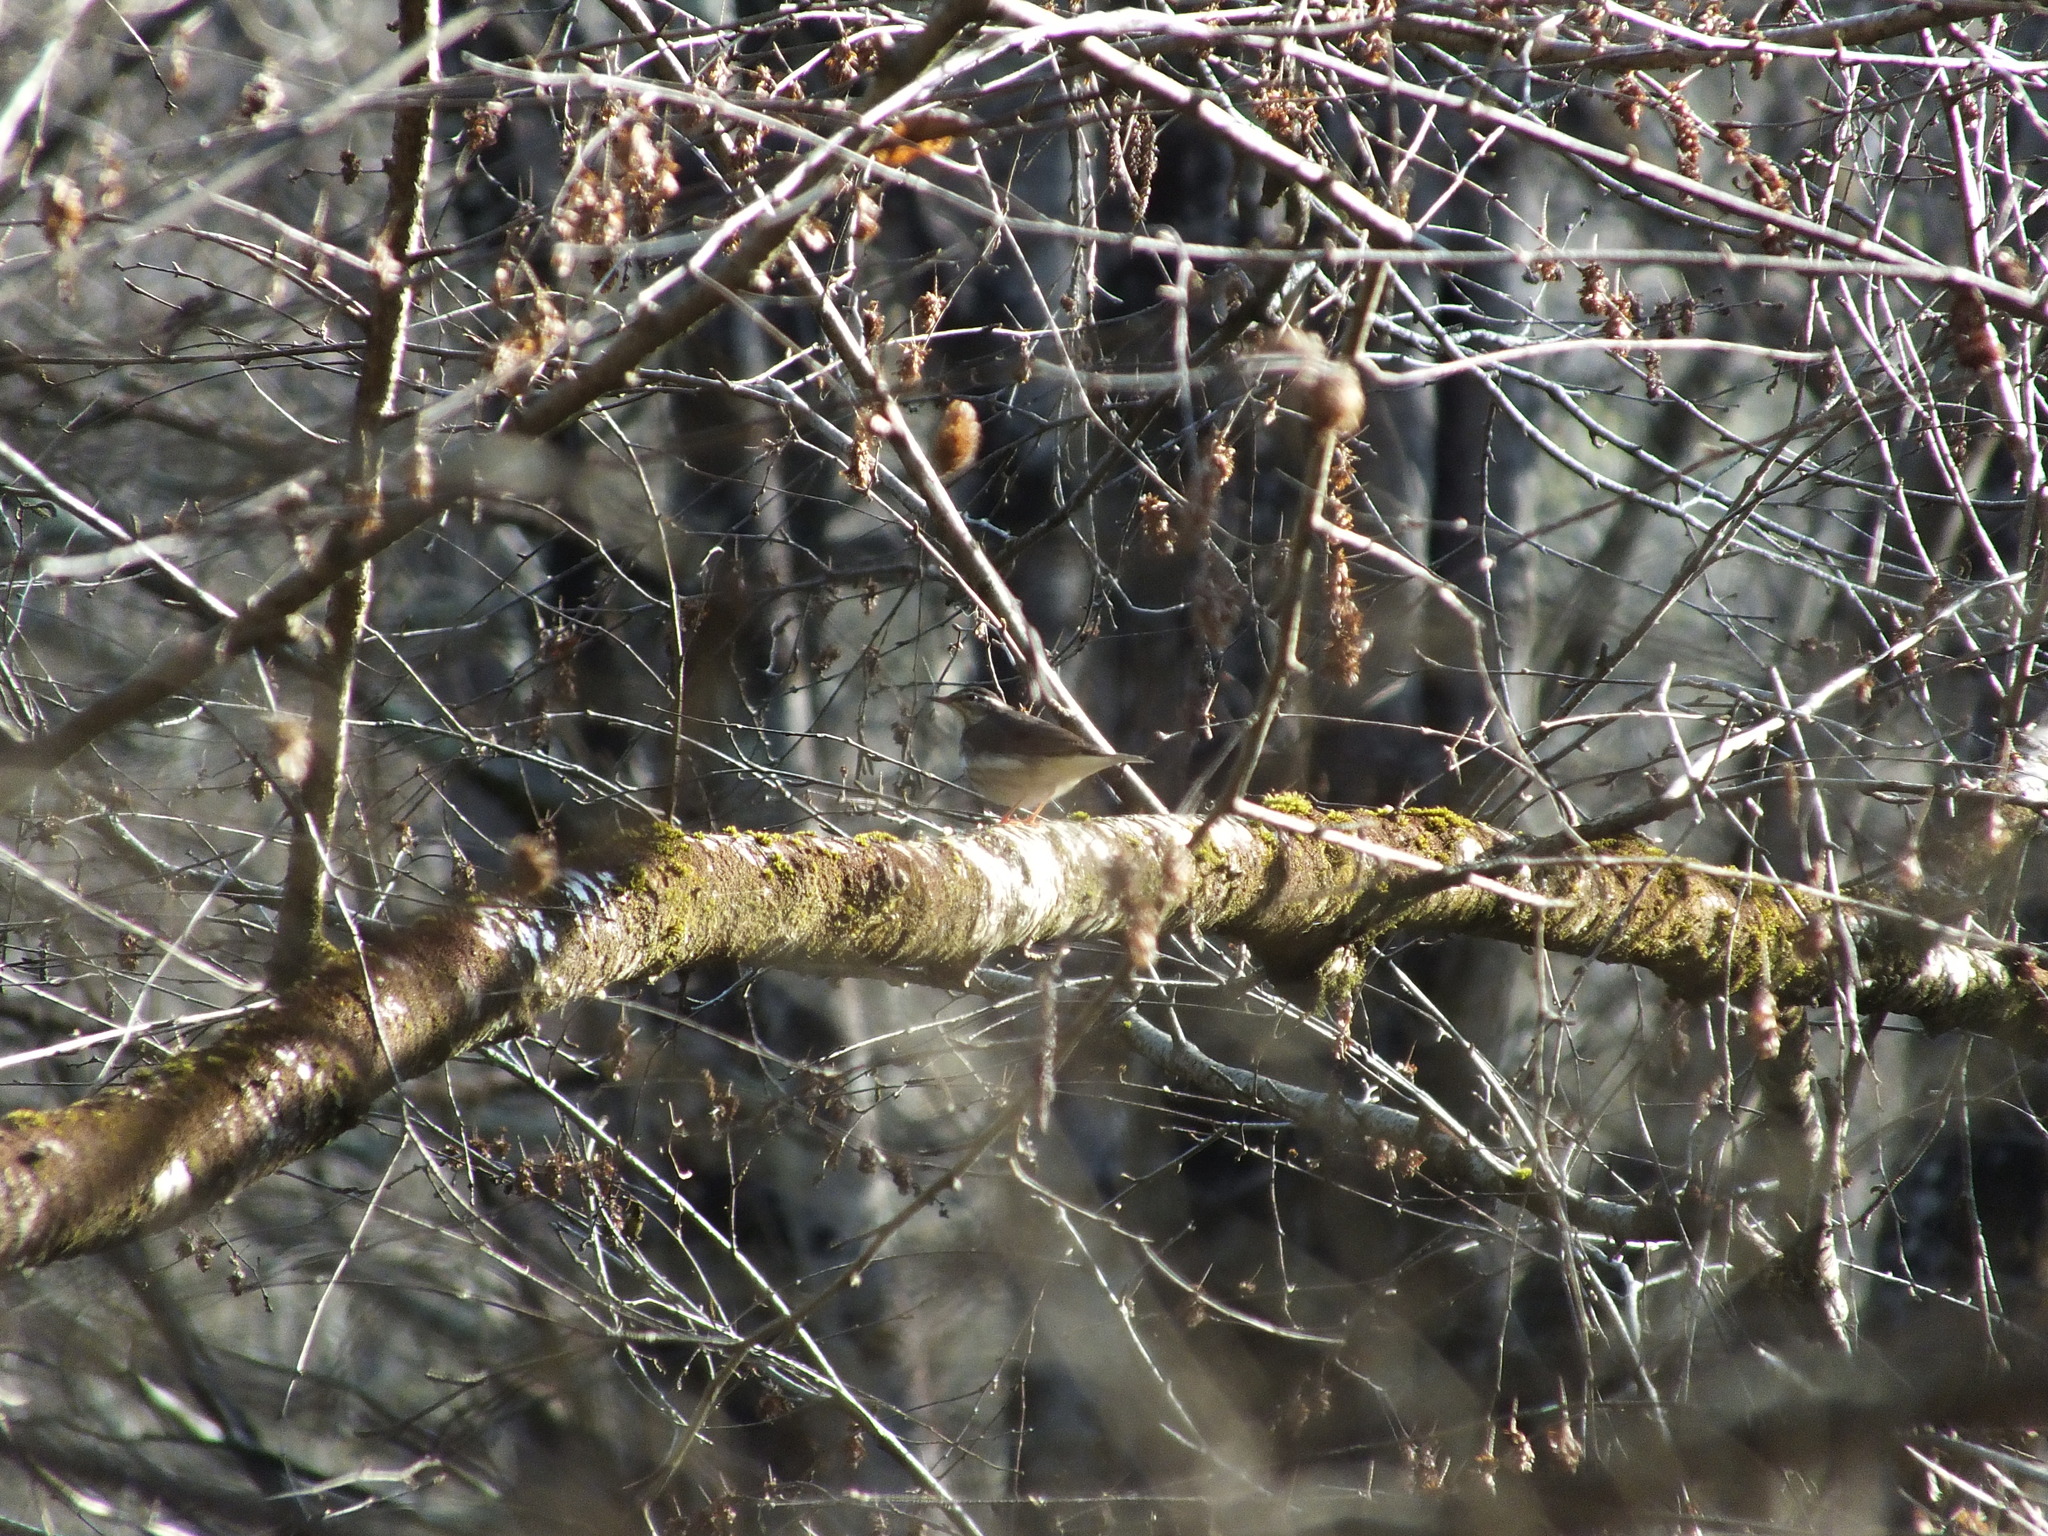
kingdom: Animalia
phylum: Chordata
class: Aves
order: Passeriformes
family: Parulidae
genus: Parkesia
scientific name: Parkesia motacilla
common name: Louisiana waterthrush
